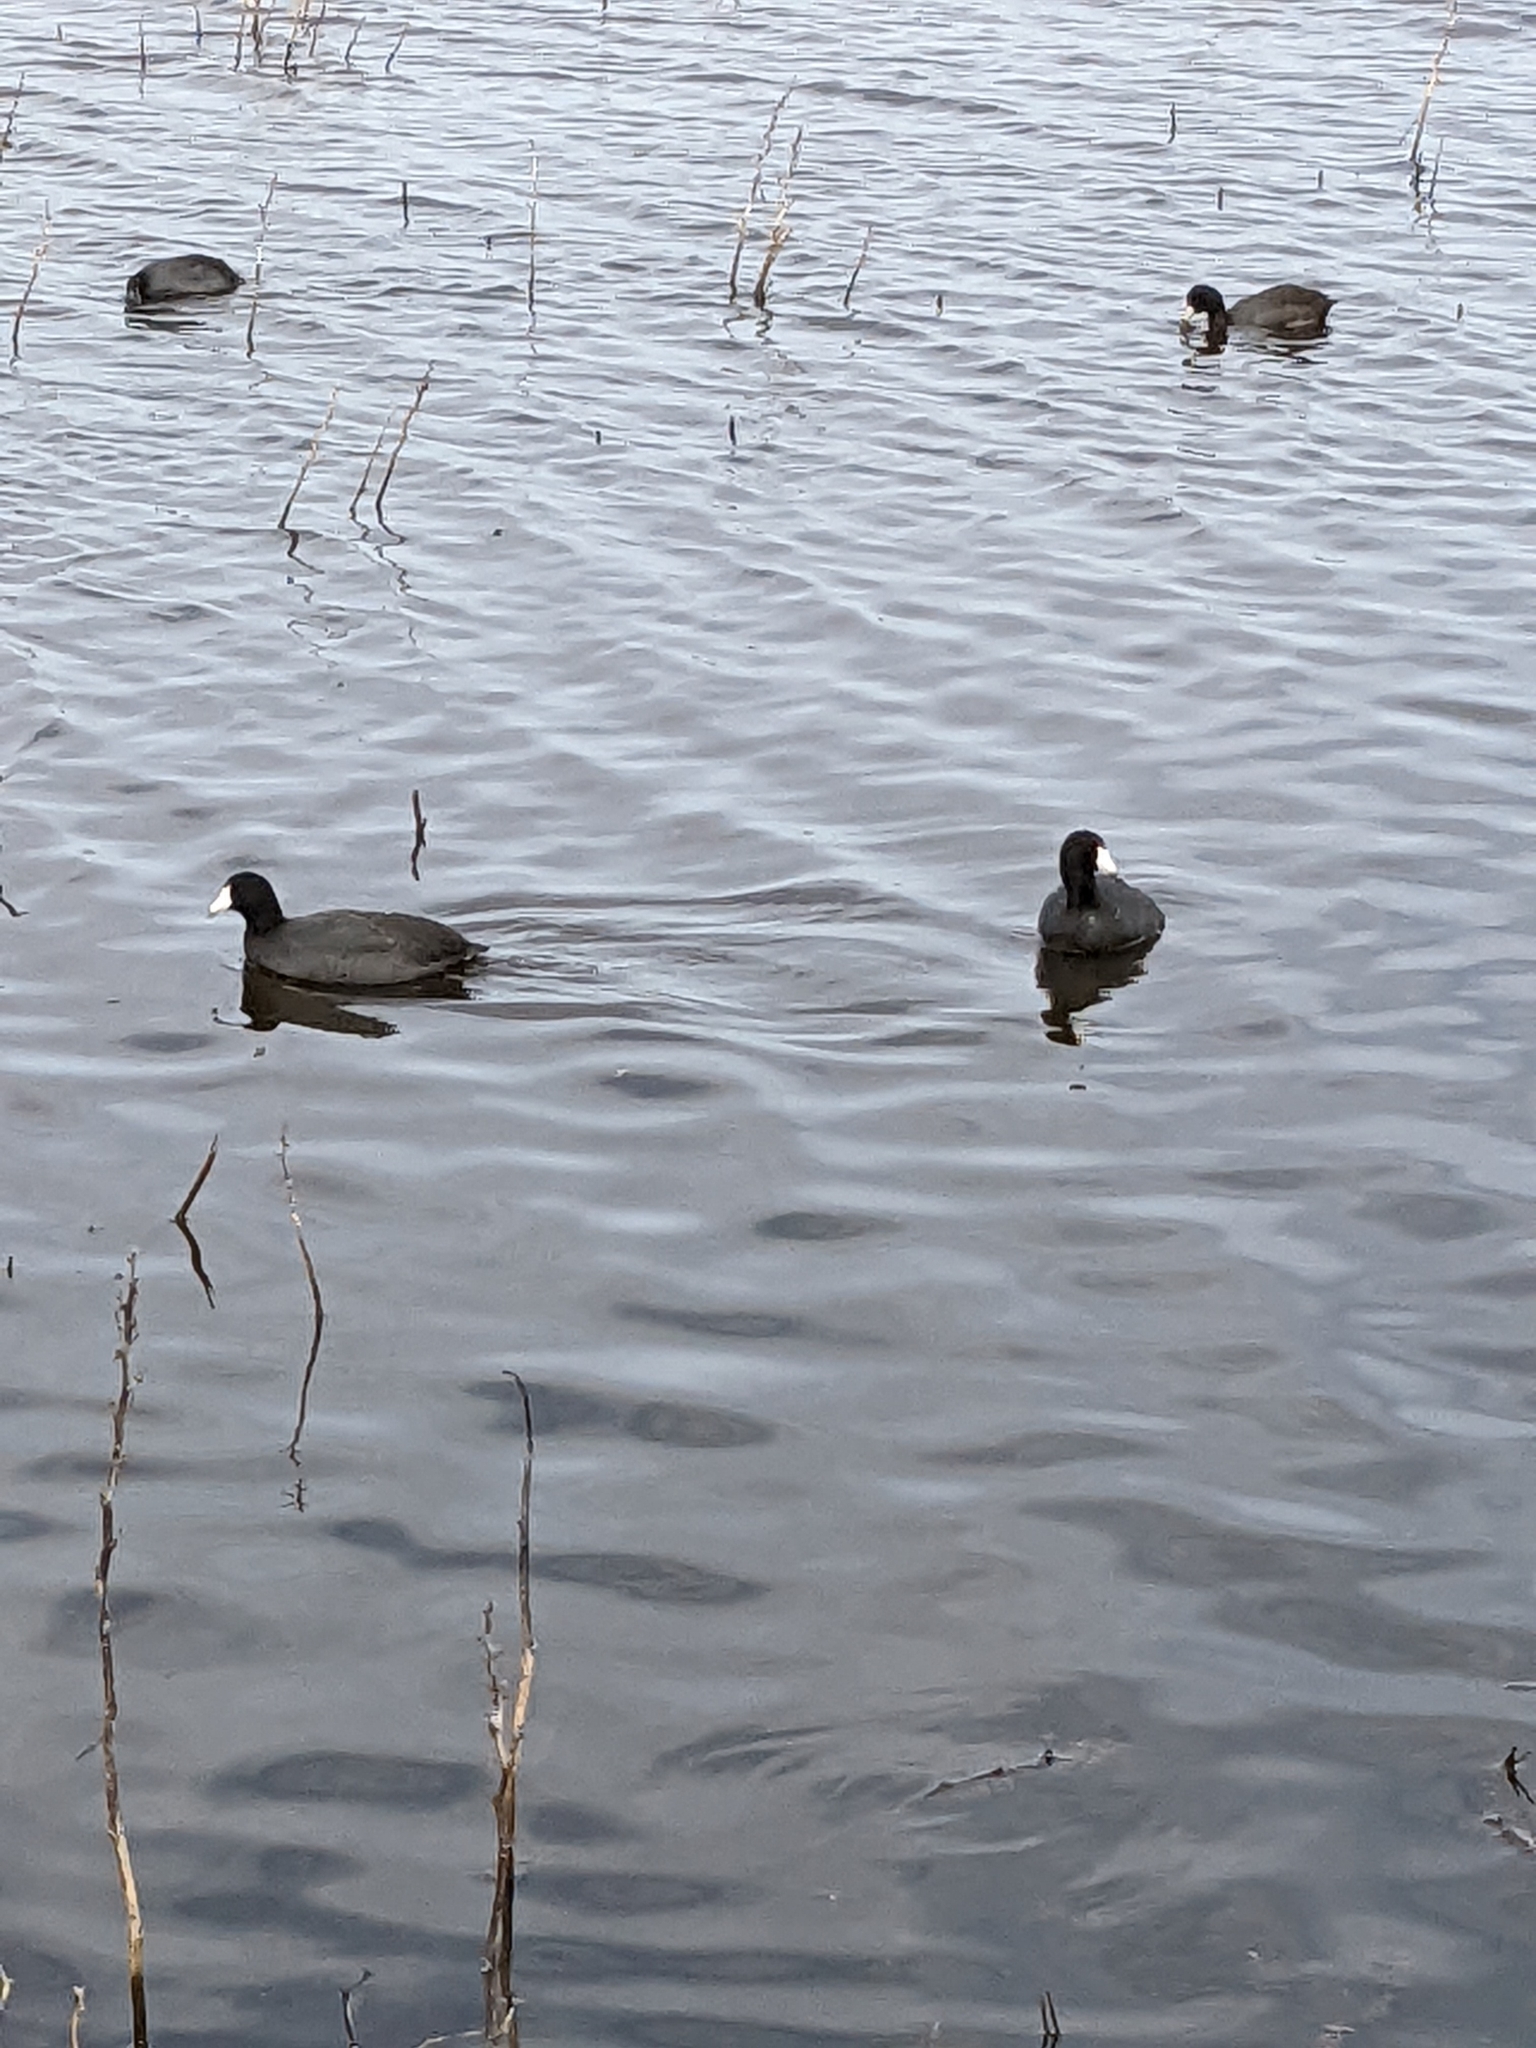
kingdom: Animalia
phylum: Chordata
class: Aves
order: Gruiformes
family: Rallidae
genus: Fulica
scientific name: Fulica americana
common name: American coot
